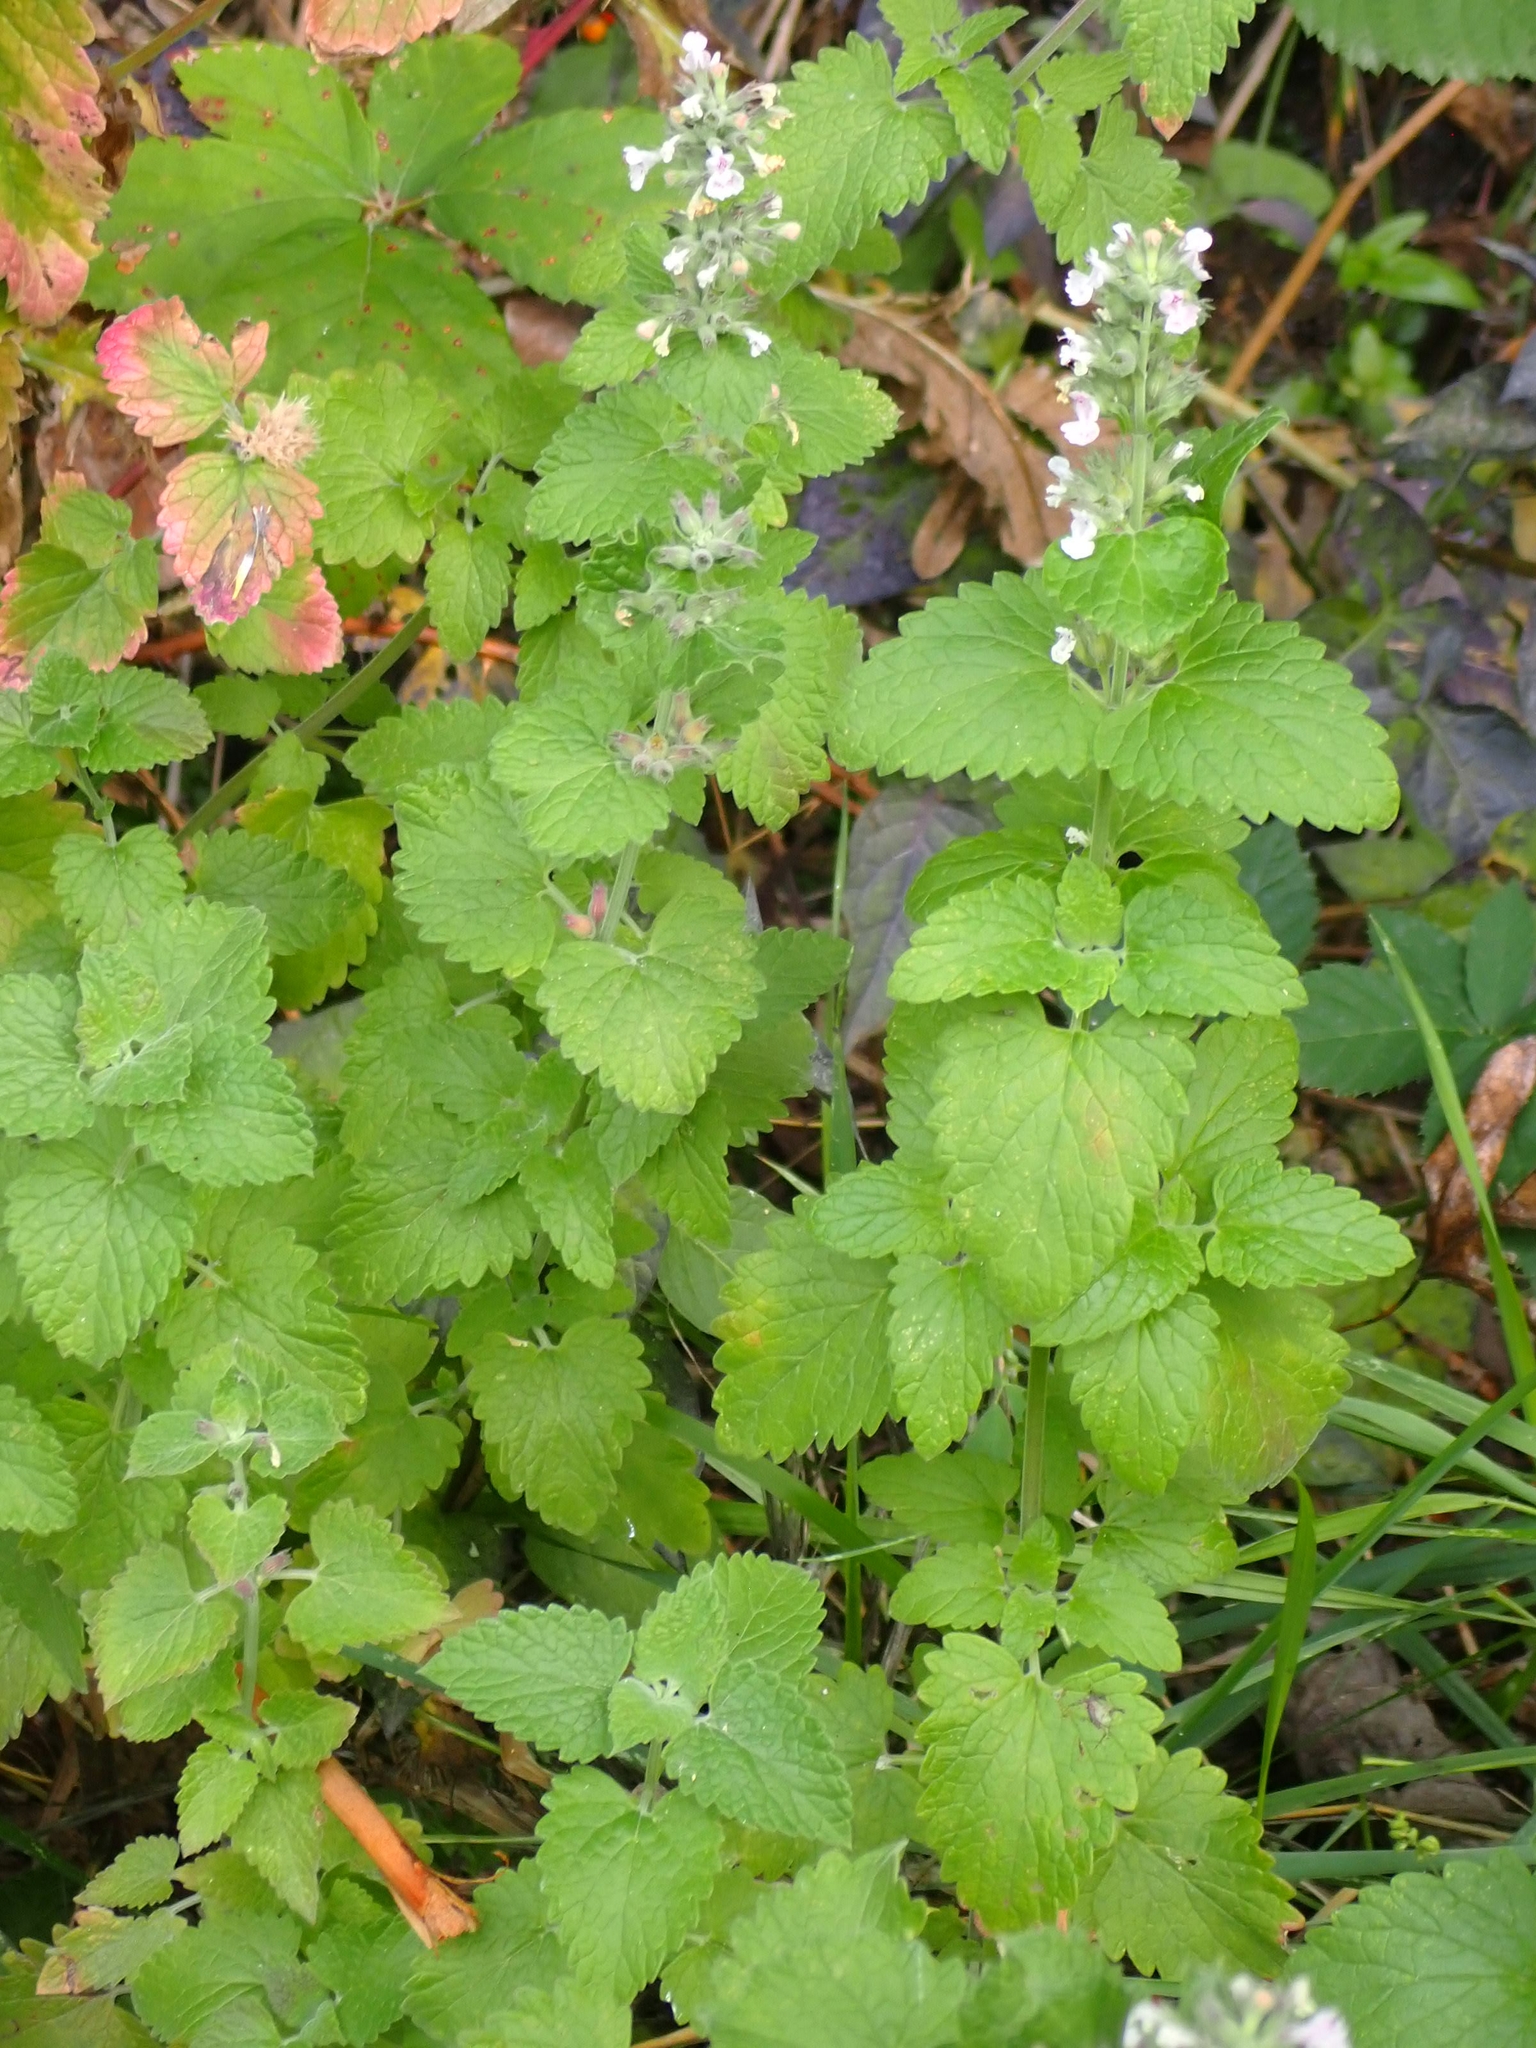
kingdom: Plantae
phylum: Tracheophyta
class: Magnoliopsida
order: Lamiales
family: Lamiaceae
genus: Nepeta
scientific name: Nepeta cataria
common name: Catnip
